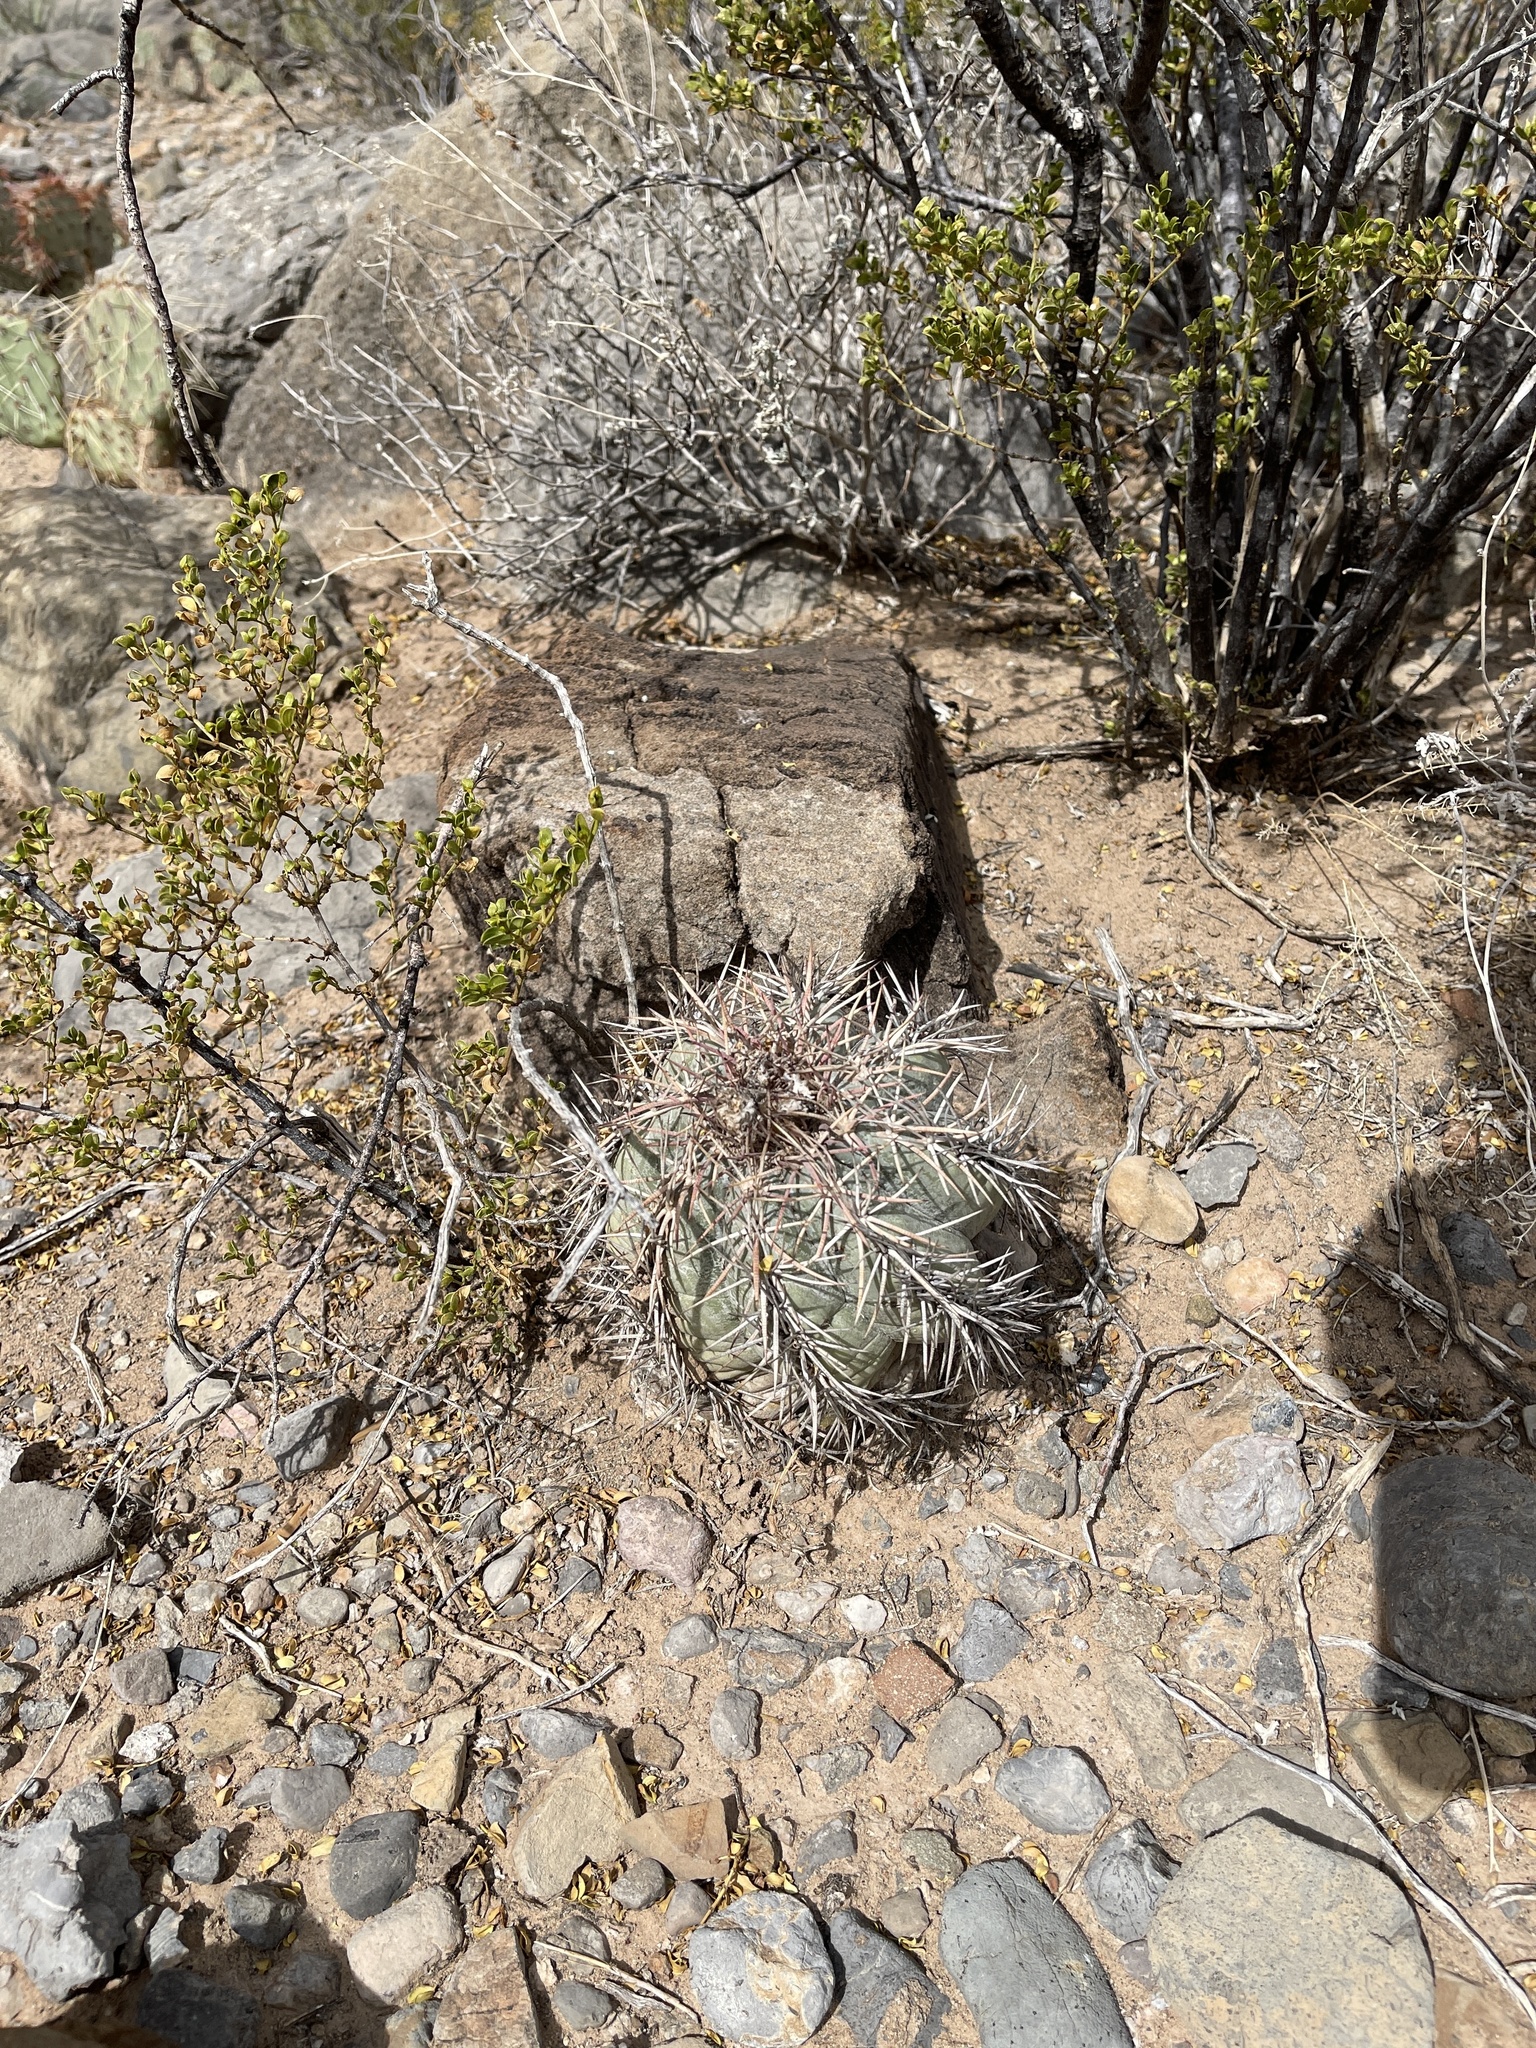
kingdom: Plantae
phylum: Tracheophyta
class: Magnoliopsida
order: Caryophyllales
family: Cactaceae
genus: Echinocactus
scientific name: Echinocactus horizonthalonius
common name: Devilshead
